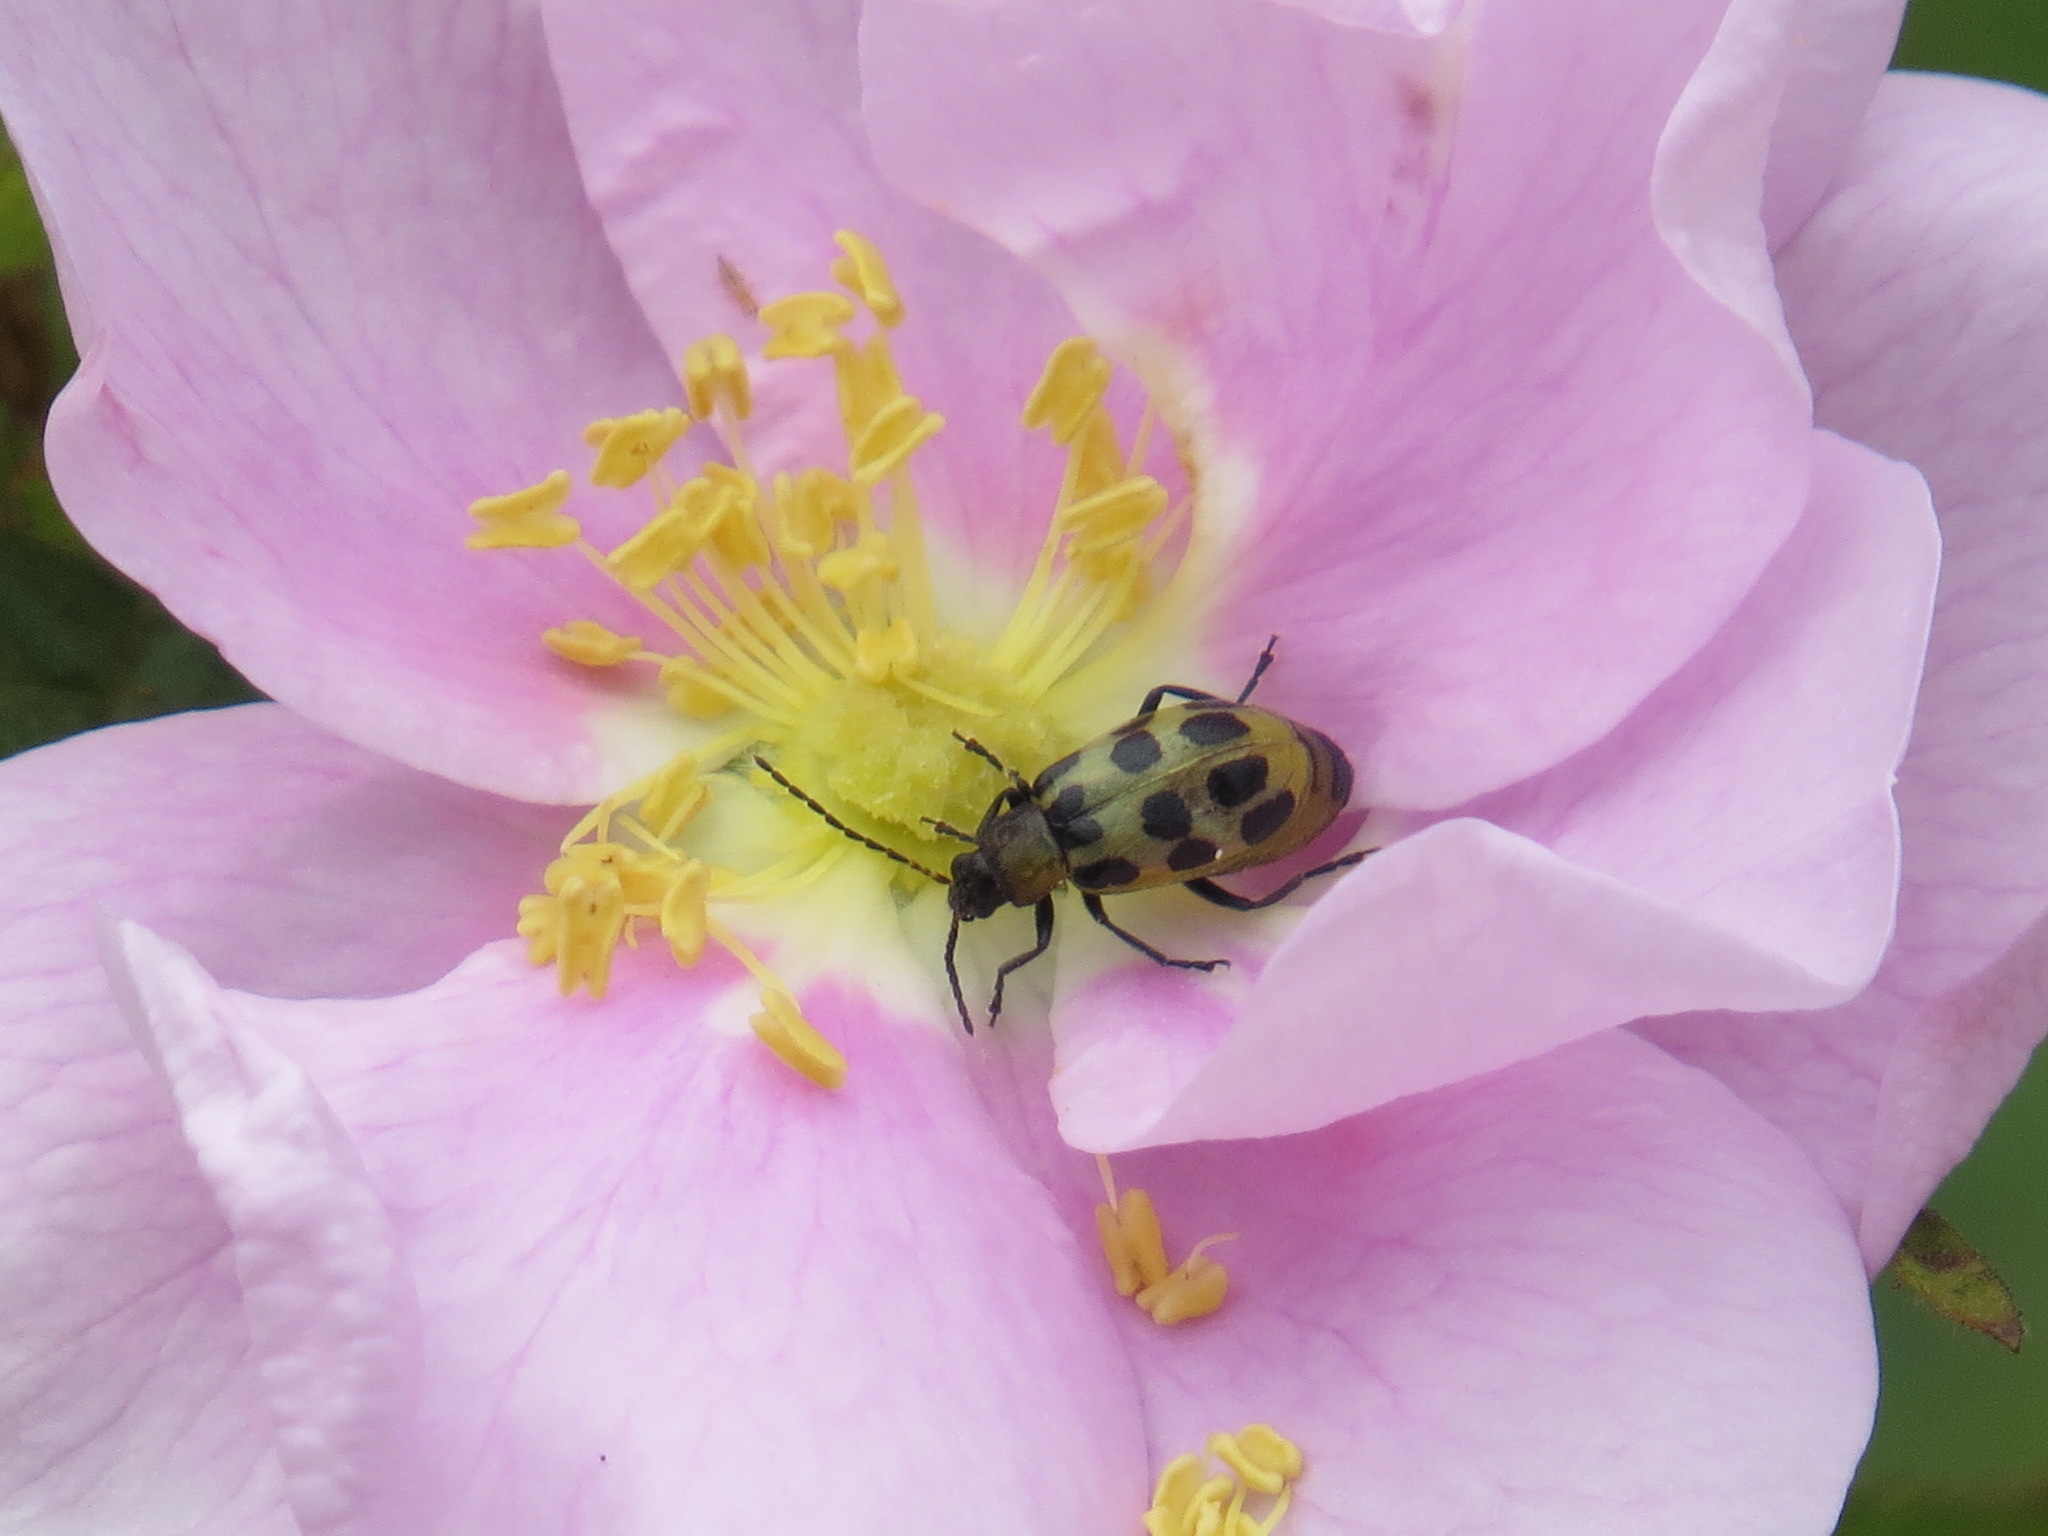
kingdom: Animalia
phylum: Arthropoda
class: Insecta
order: Coleoptera
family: Chrysomelidae
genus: Diabrotica
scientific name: Diabrotica undecimpunctata
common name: Spotted cucumber beetle
